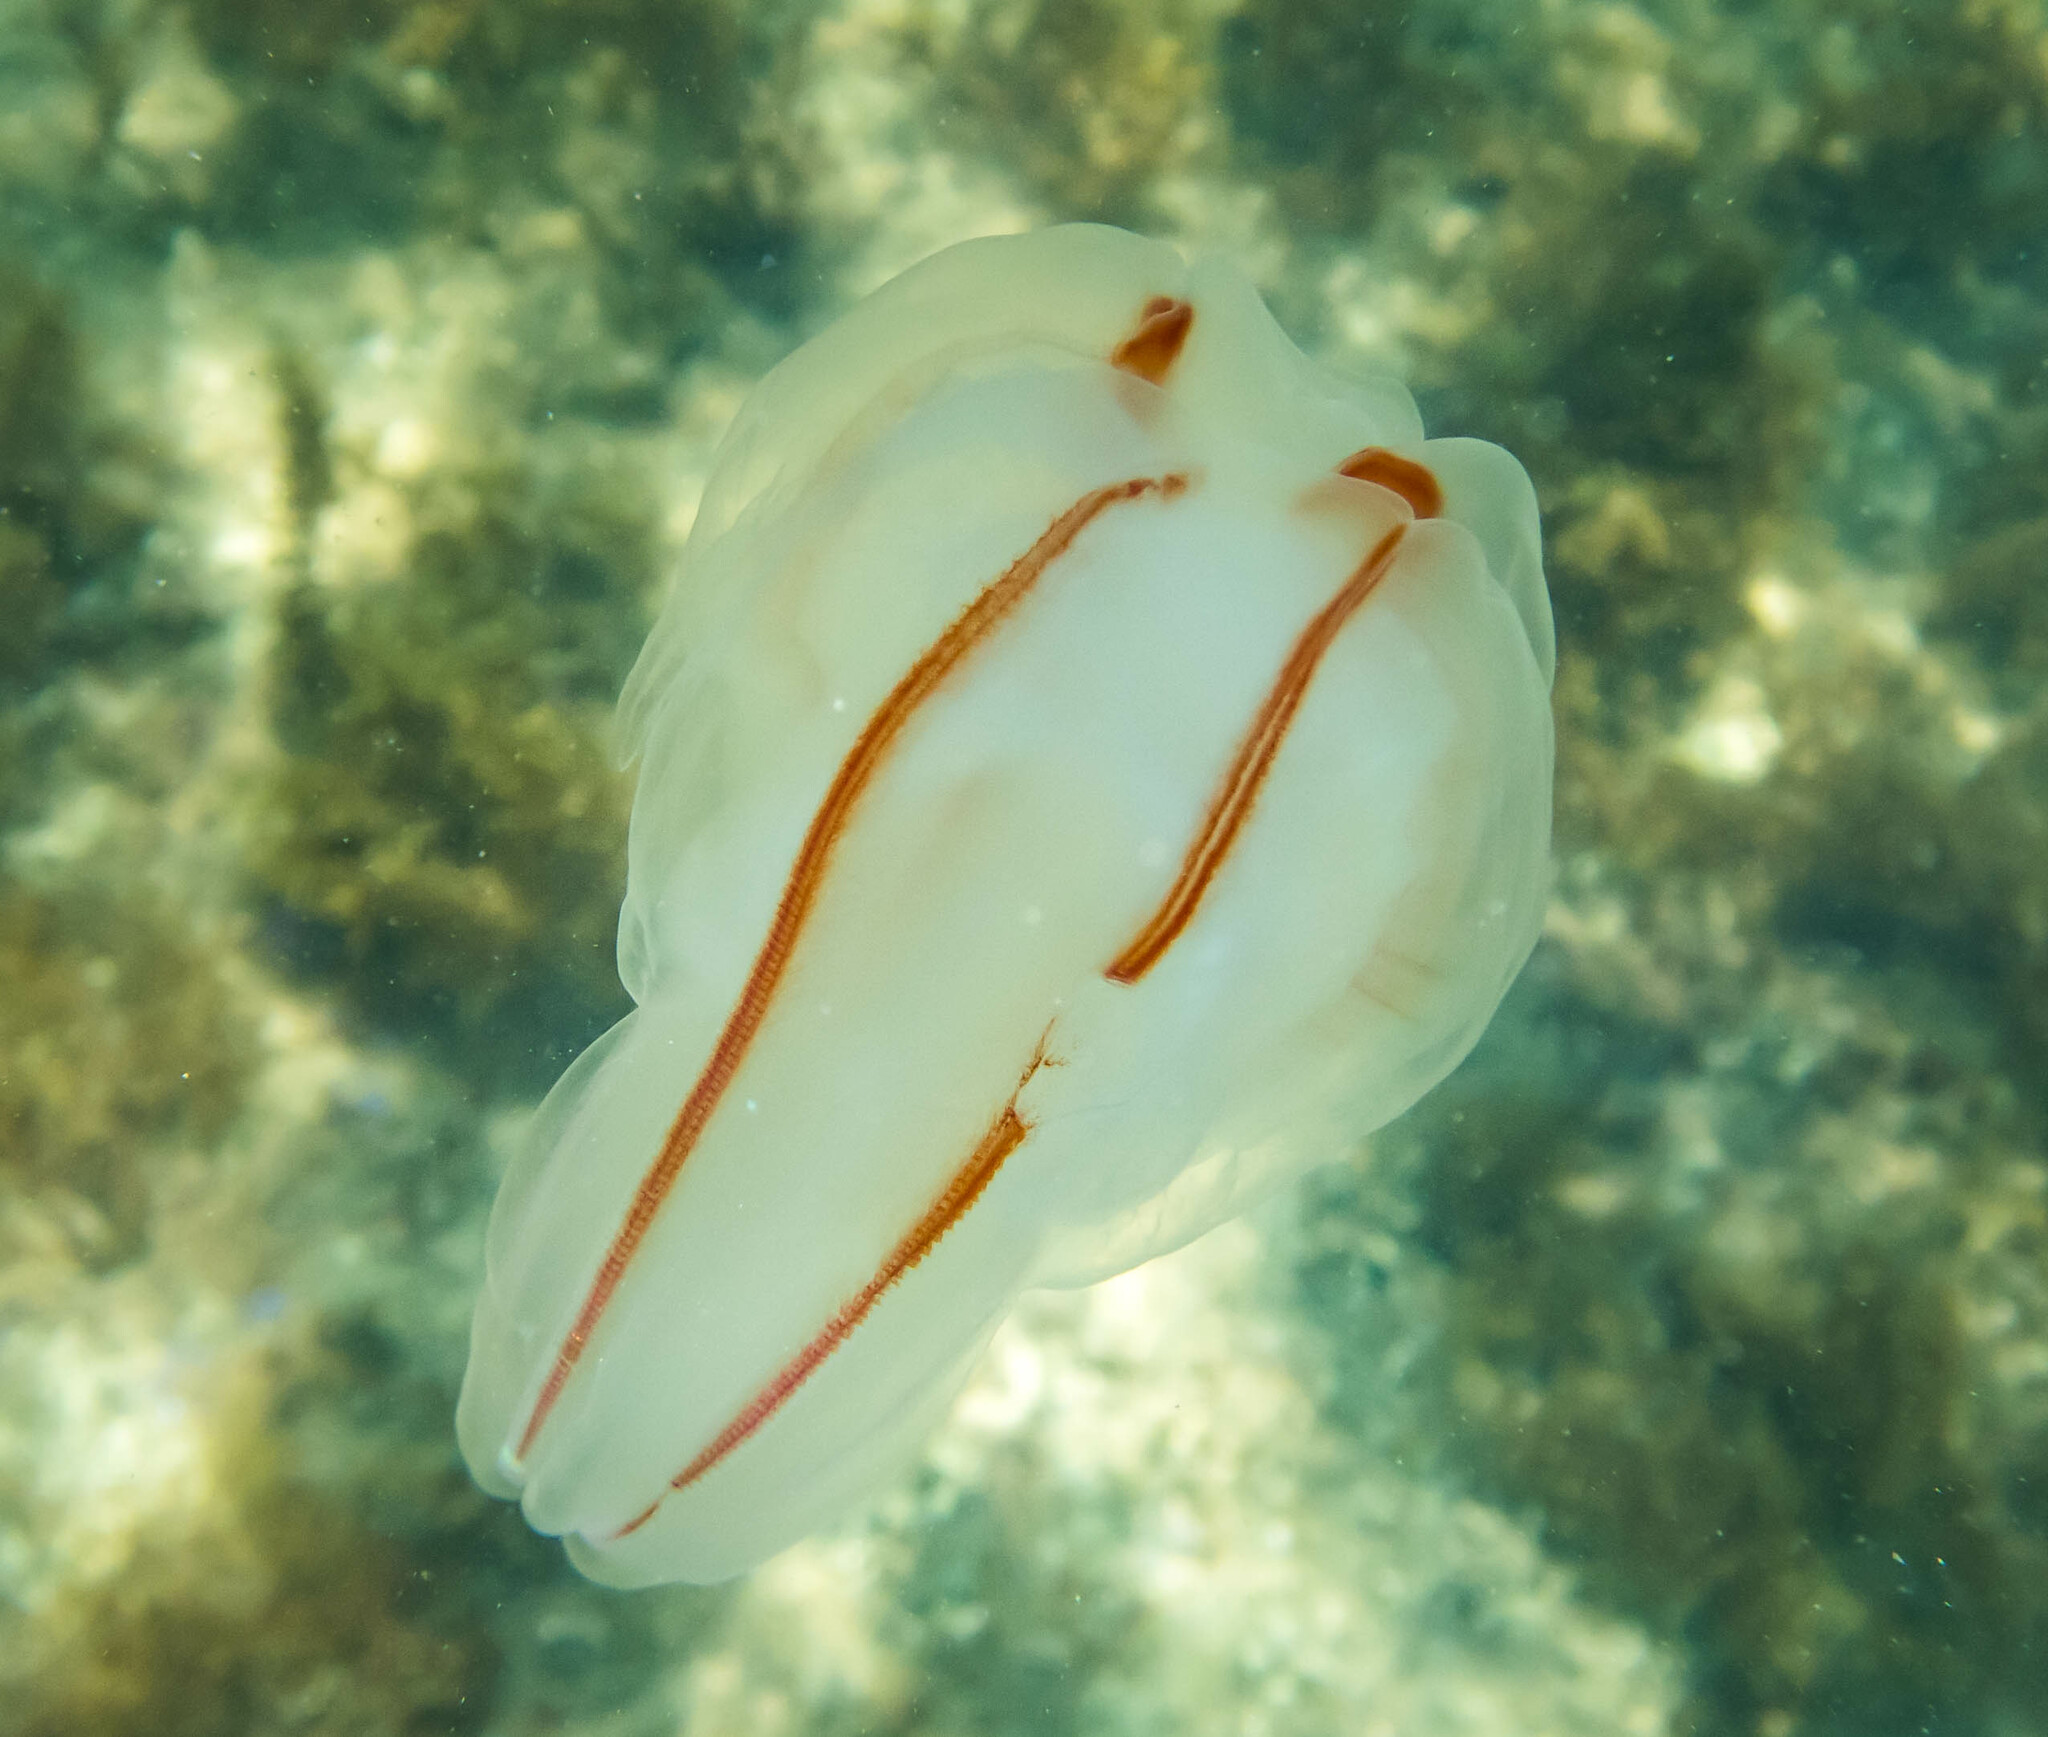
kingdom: Animalia
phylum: Ctenophora
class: Tentaculata
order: Lobata
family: Bolinopsidae
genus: Bolinopsis
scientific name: Bolinopsis ashleyi
